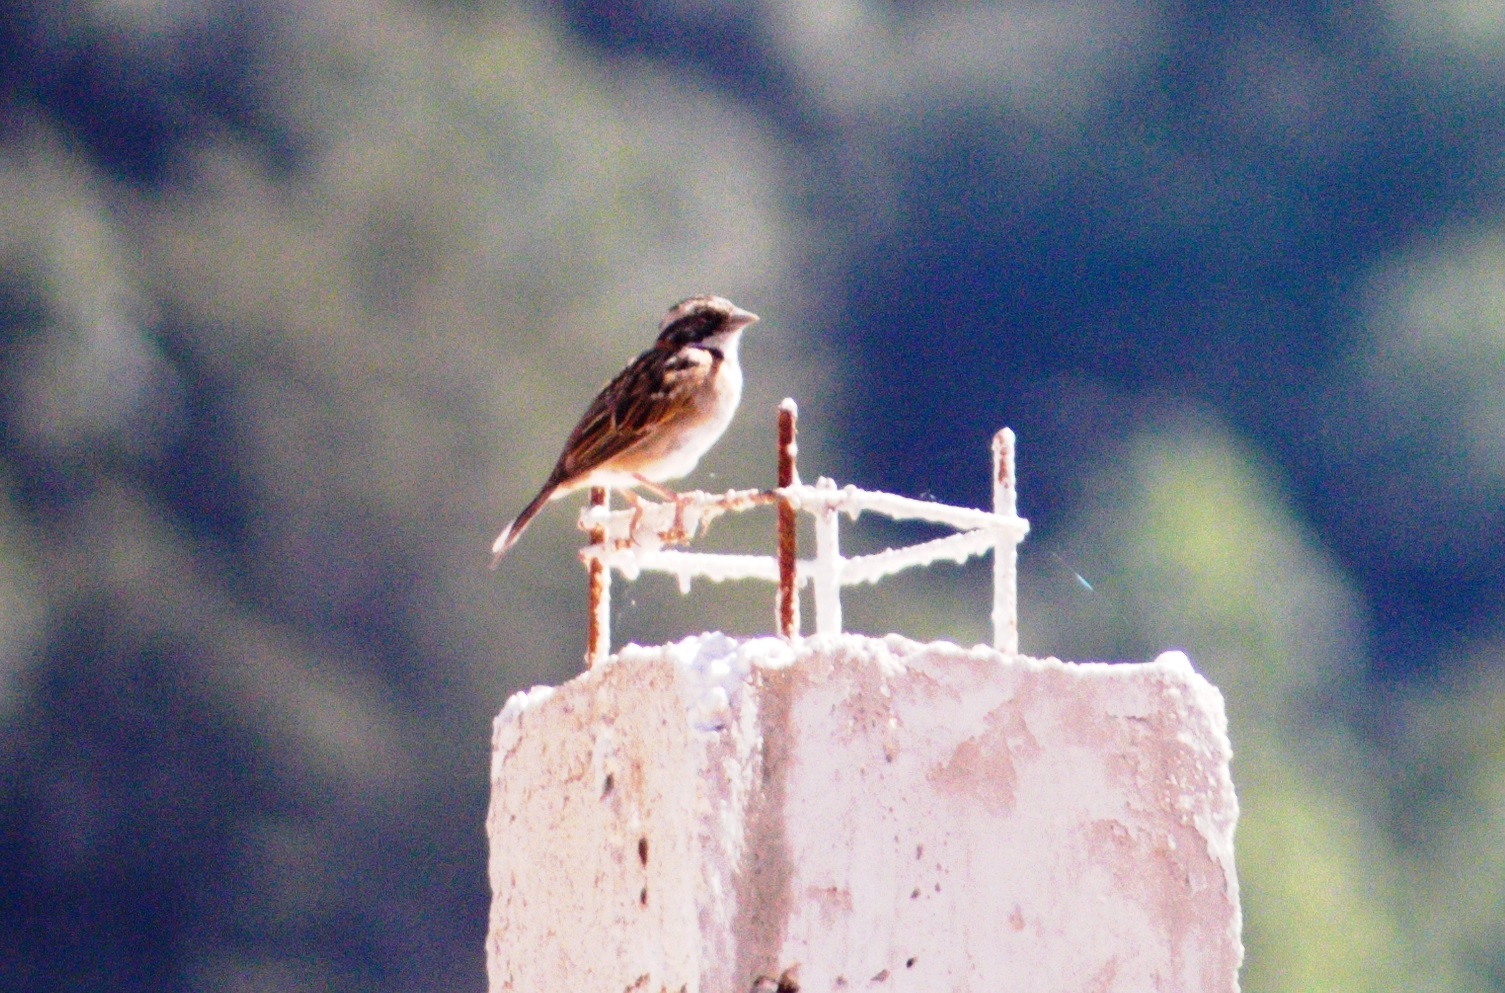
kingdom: Animalia
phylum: Chordata
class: Aves
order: Passeriformes
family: Passerellidae
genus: Zonotrichia
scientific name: Zonotrichia capensis
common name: Rufous-collared sparrow
